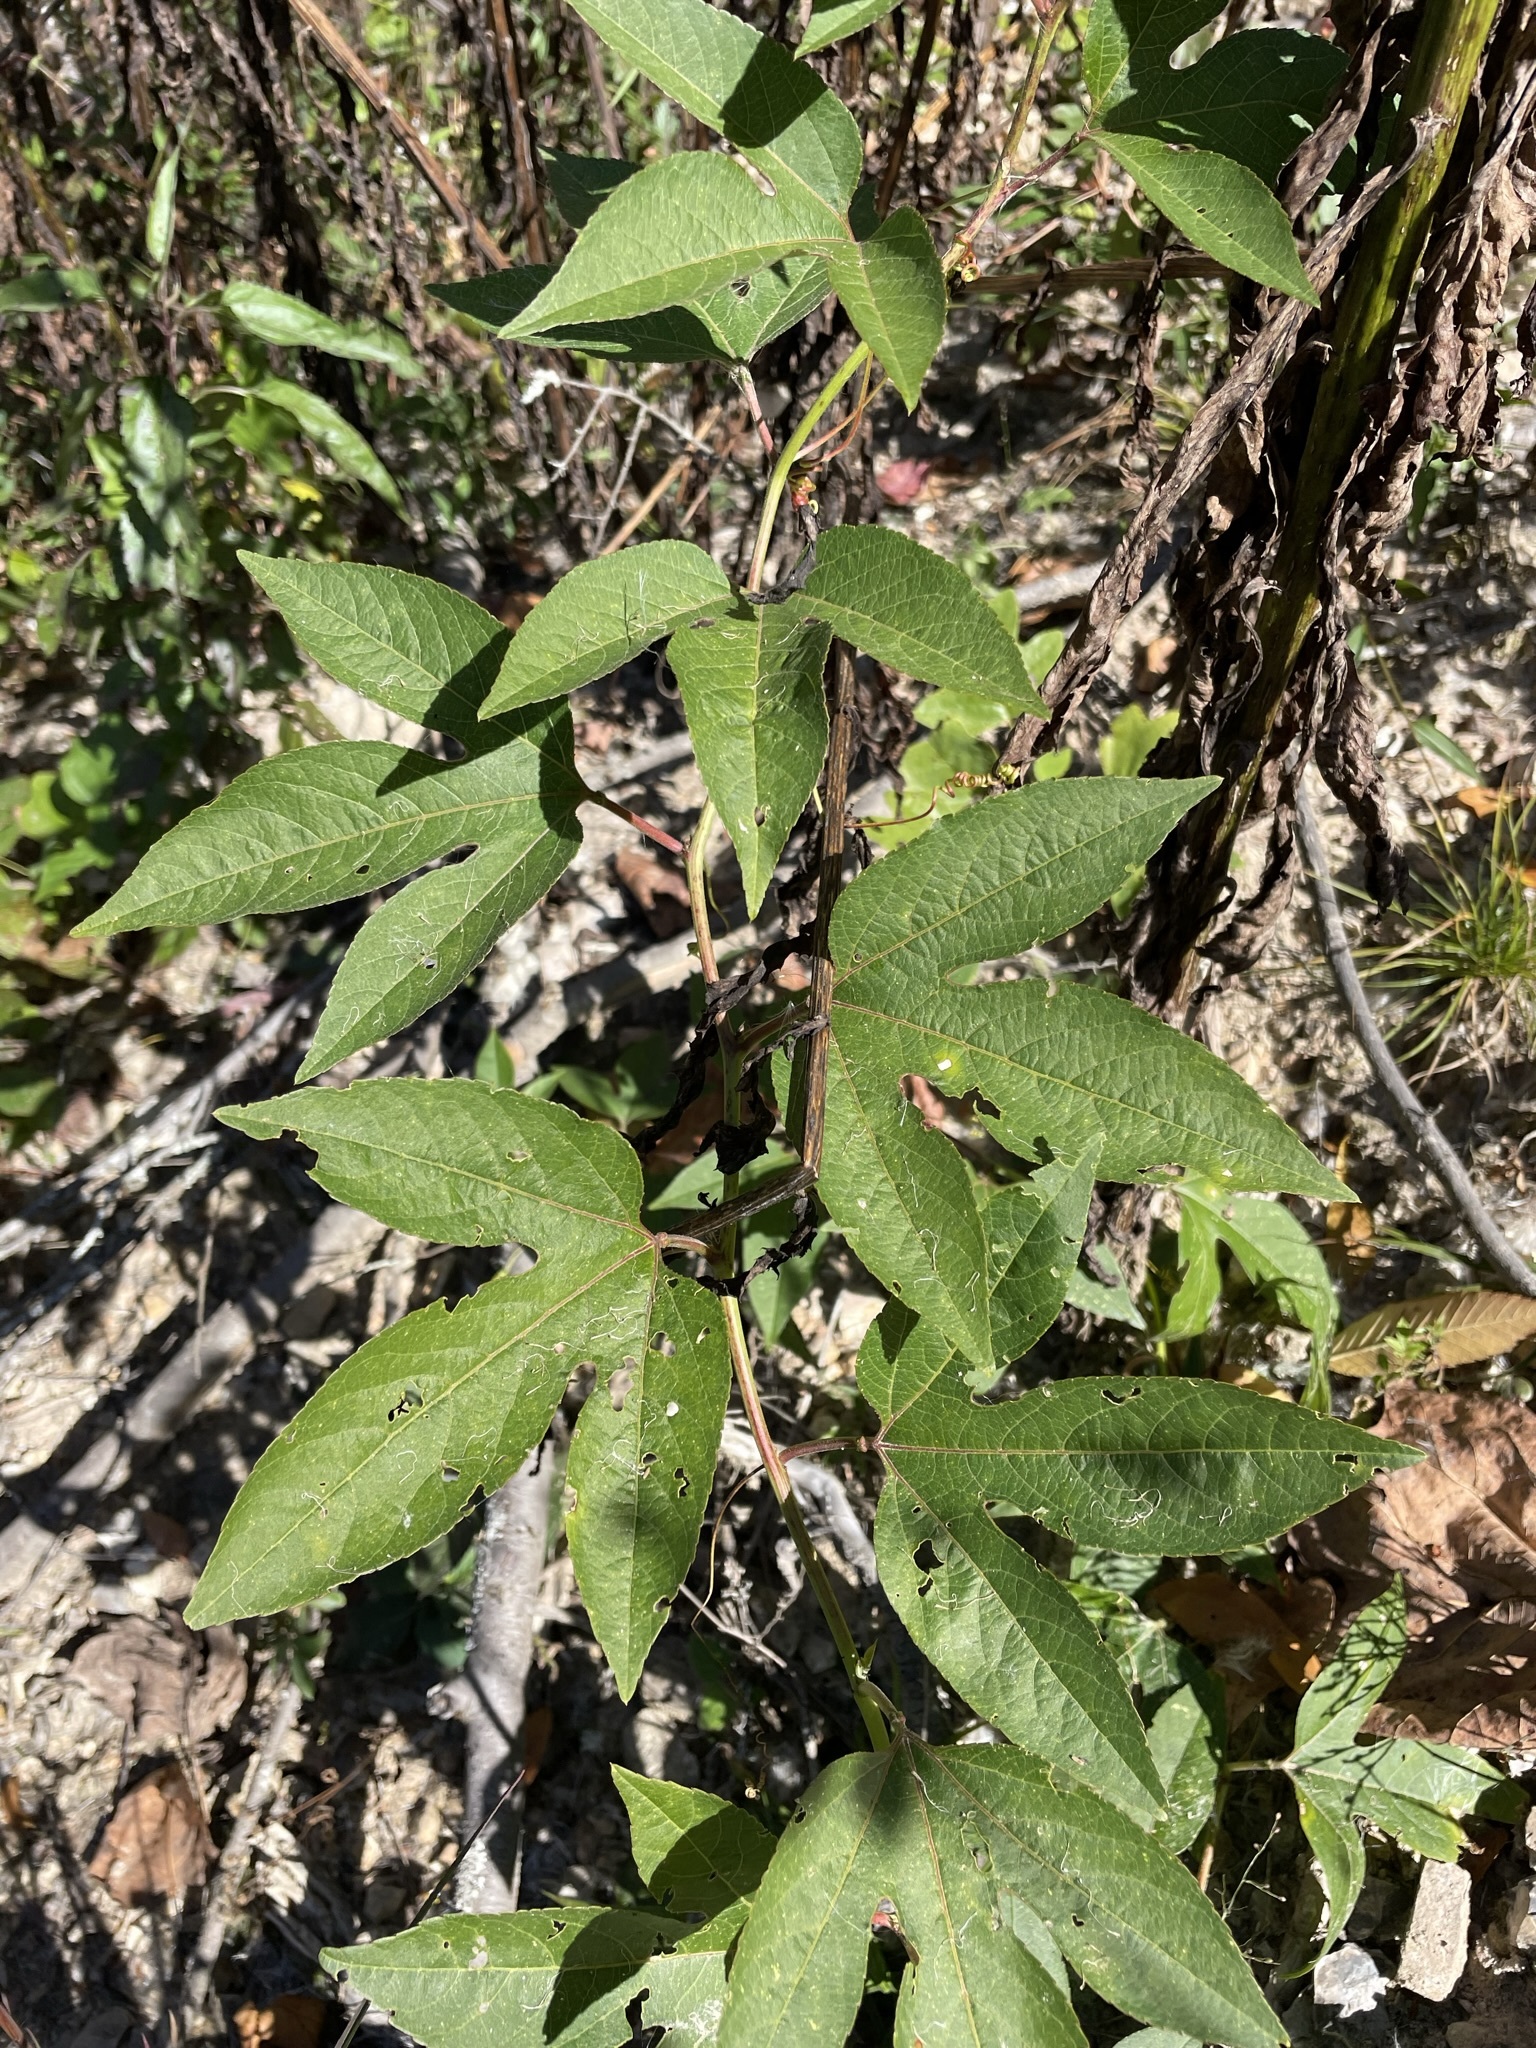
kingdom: Plantae
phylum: Tracheophyta
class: Magnoliopsida
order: Malpighiales
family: Passifloraceae
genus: Passiflora
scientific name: Passiflora incarnata
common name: Apricot-vine
